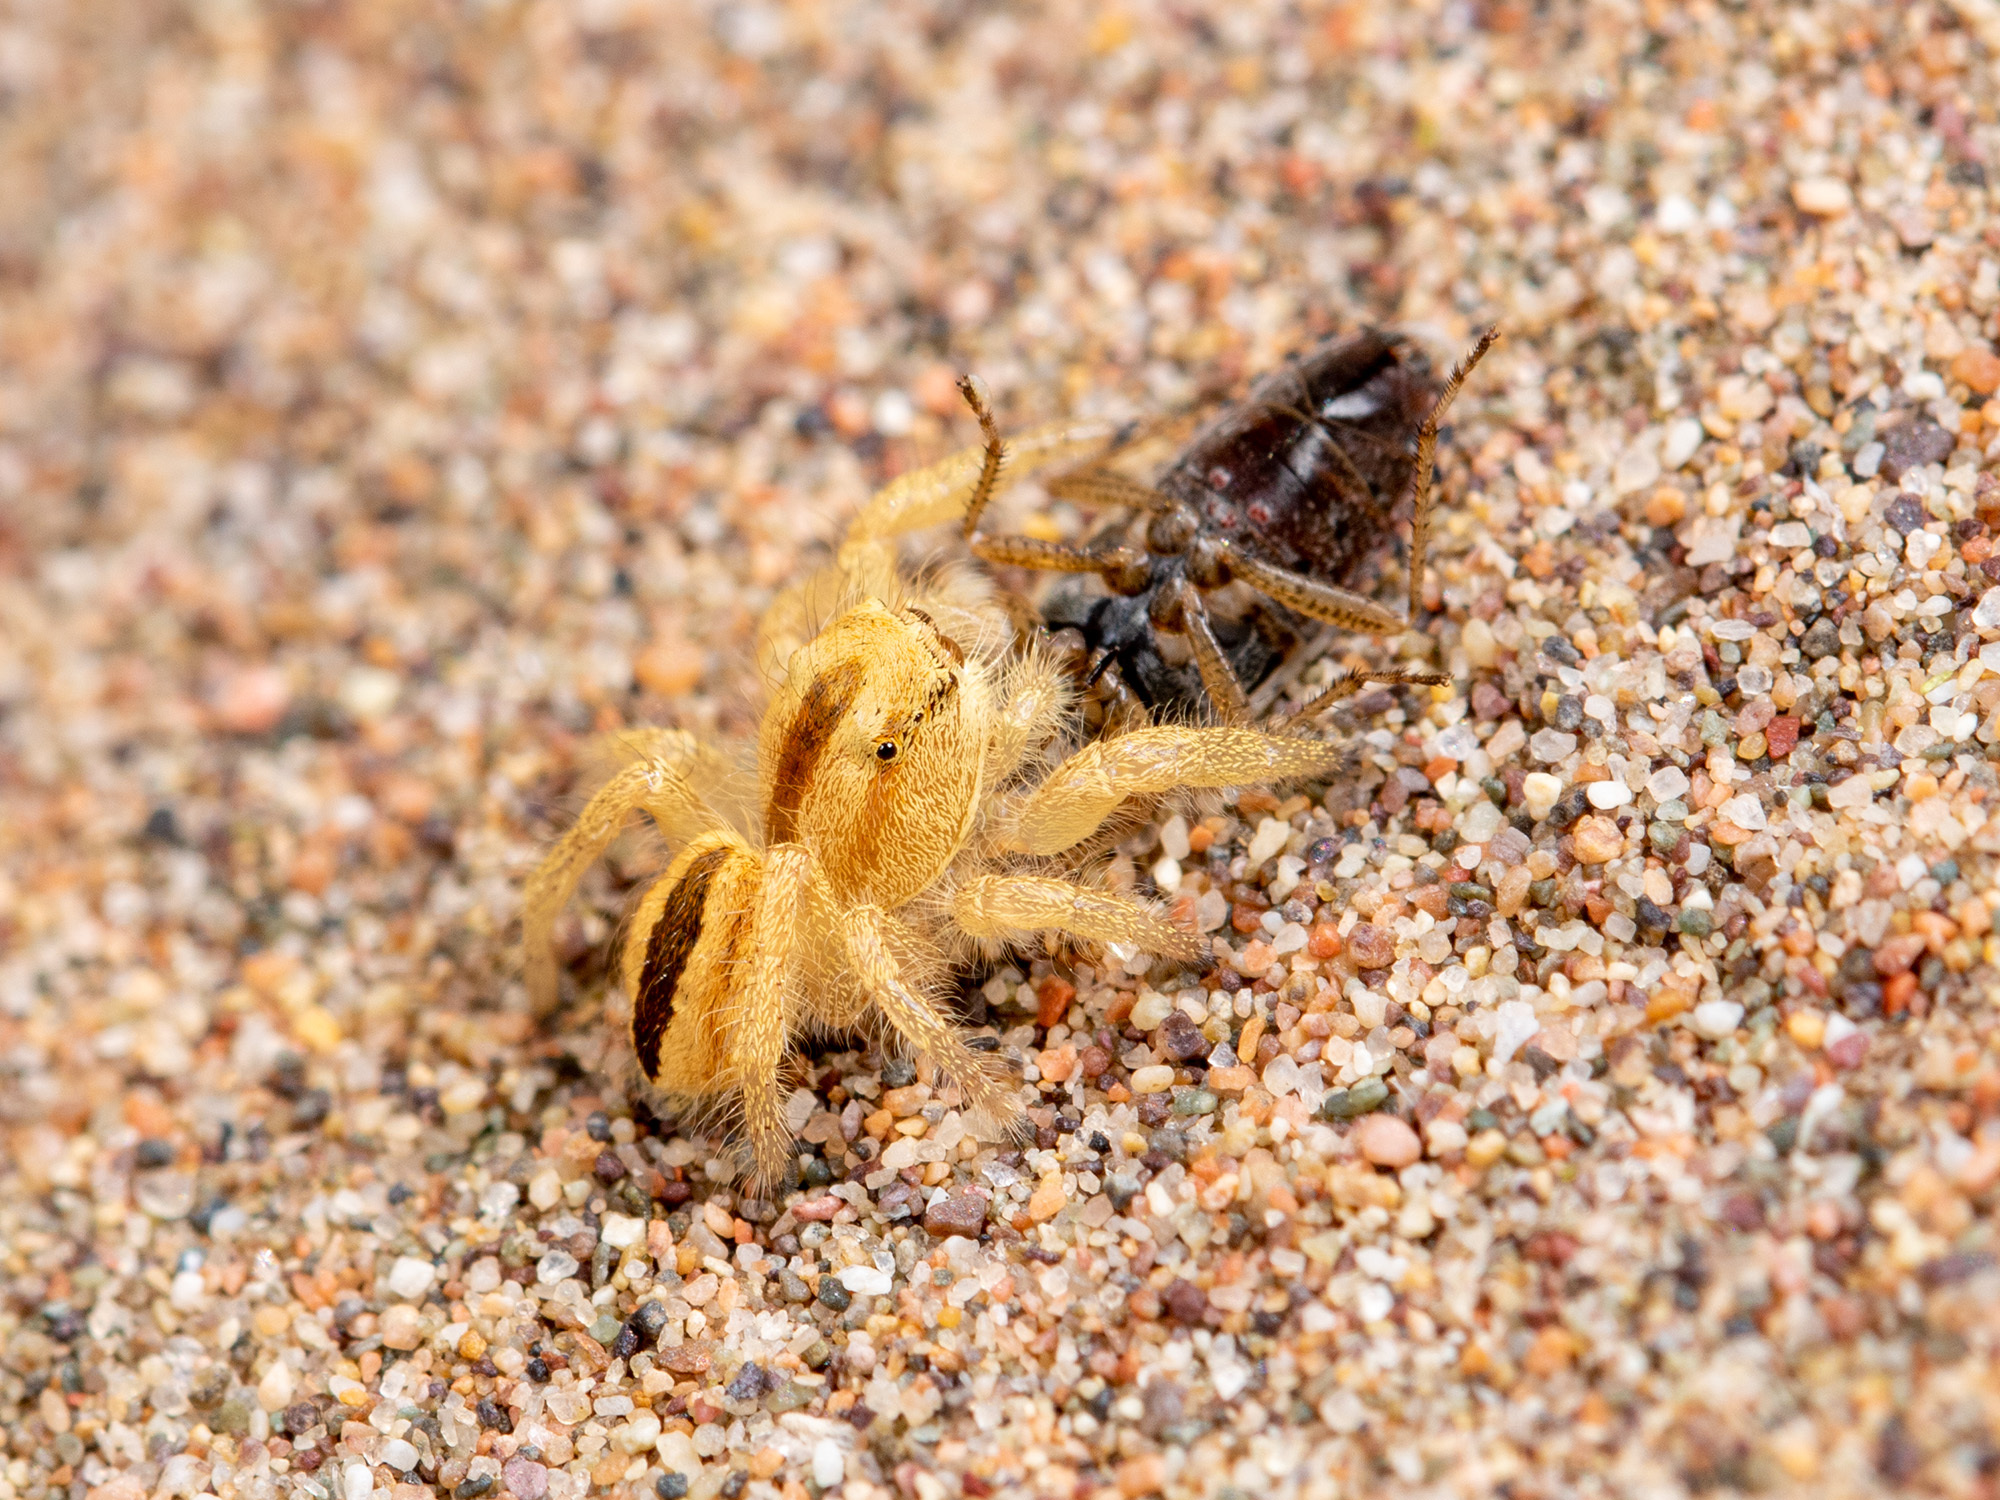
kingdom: Animalia
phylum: Arthropoda
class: Arachnida
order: Araneae
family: Salticidae
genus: Pseudomogrus
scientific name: Pseudomogrus zhilgaensis
